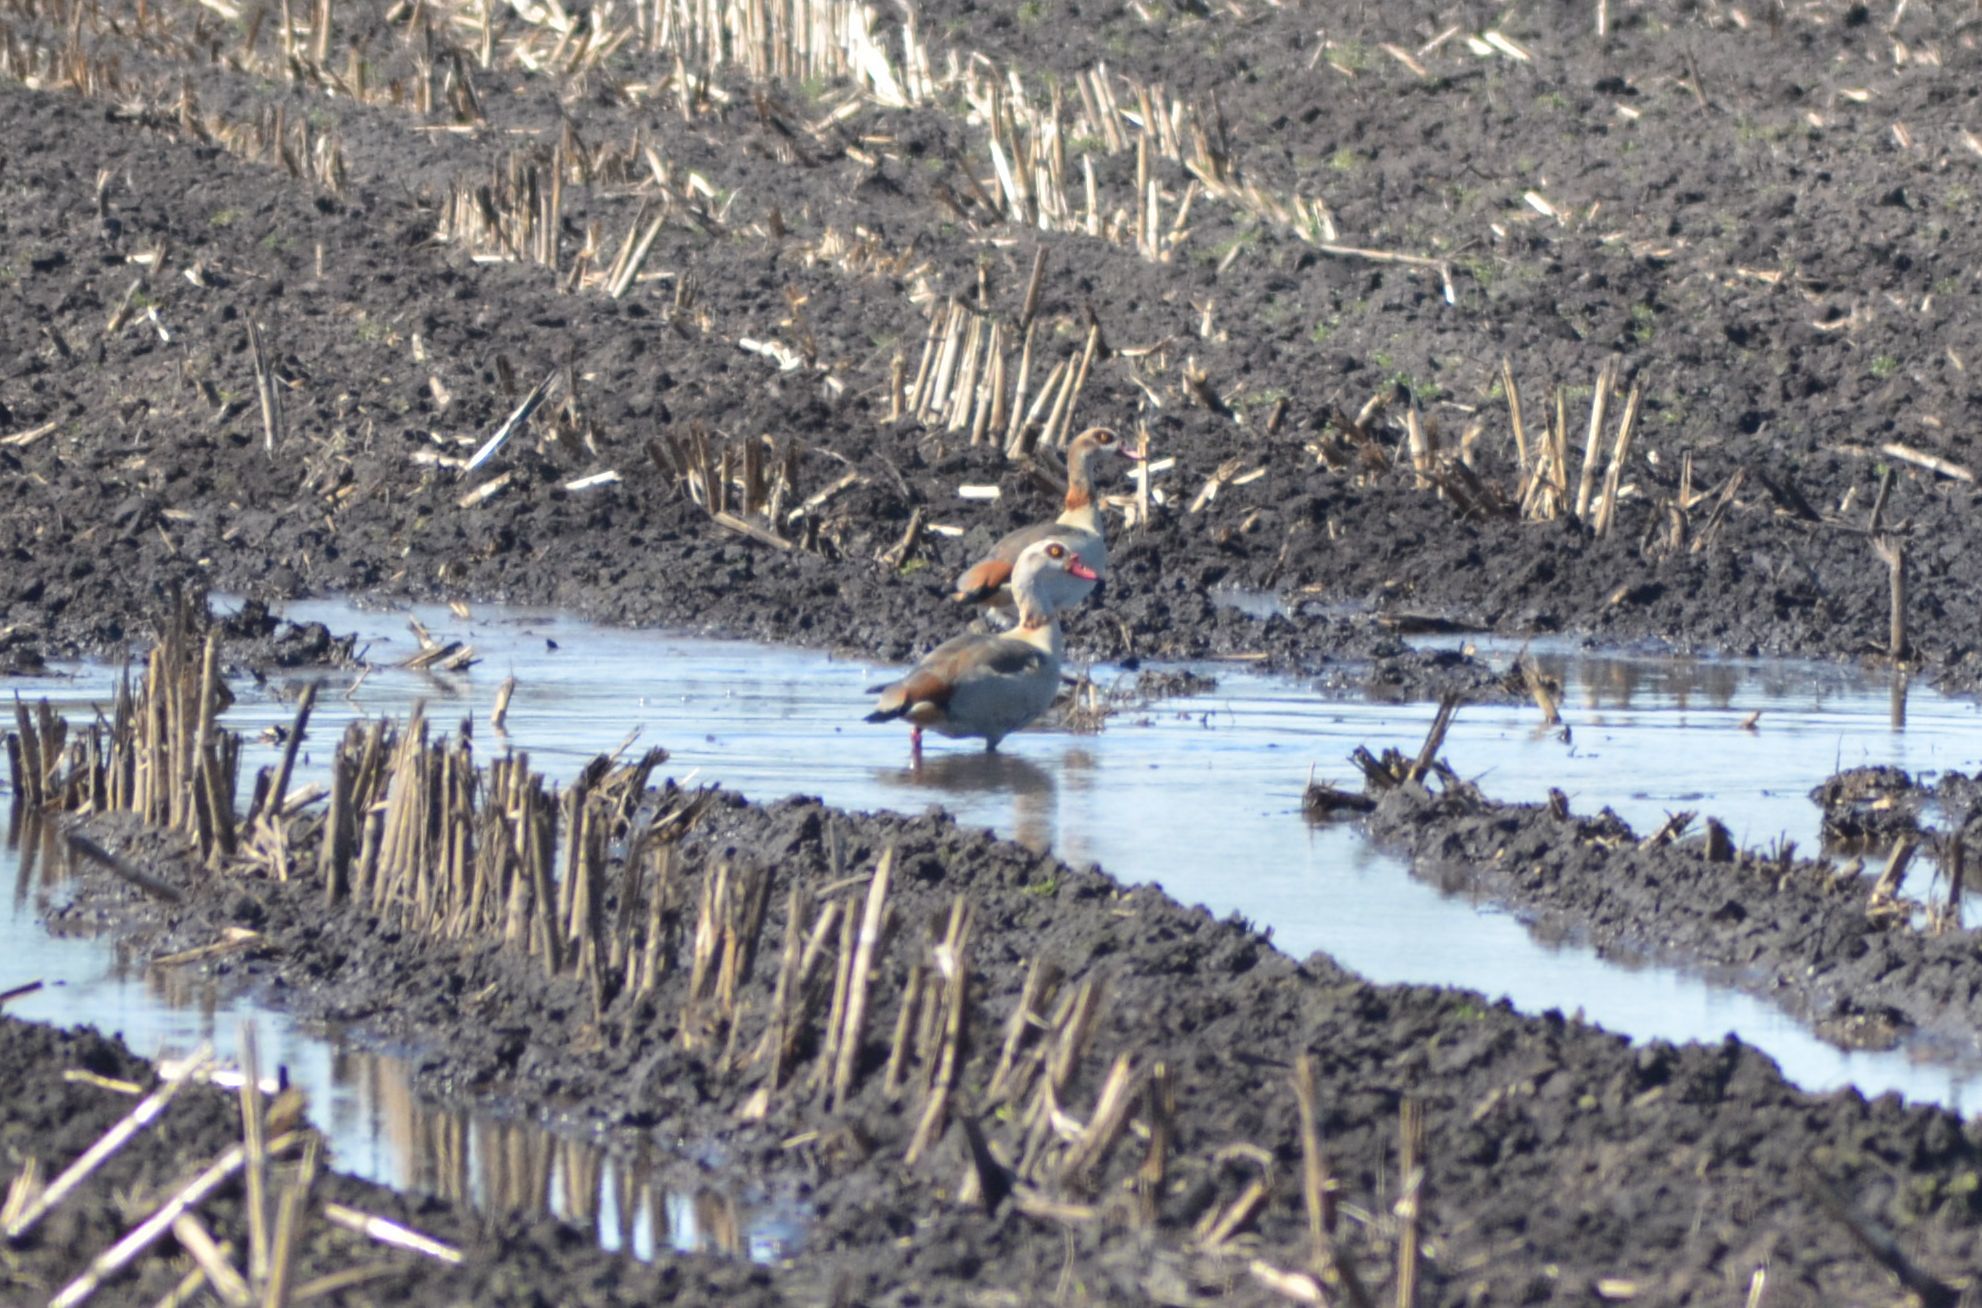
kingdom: Animalia
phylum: Chordata
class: Aves
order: Anseriformes
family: Anatidae
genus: Alopochen
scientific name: Alopochen aegyptiaca
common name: Egyptian goose
